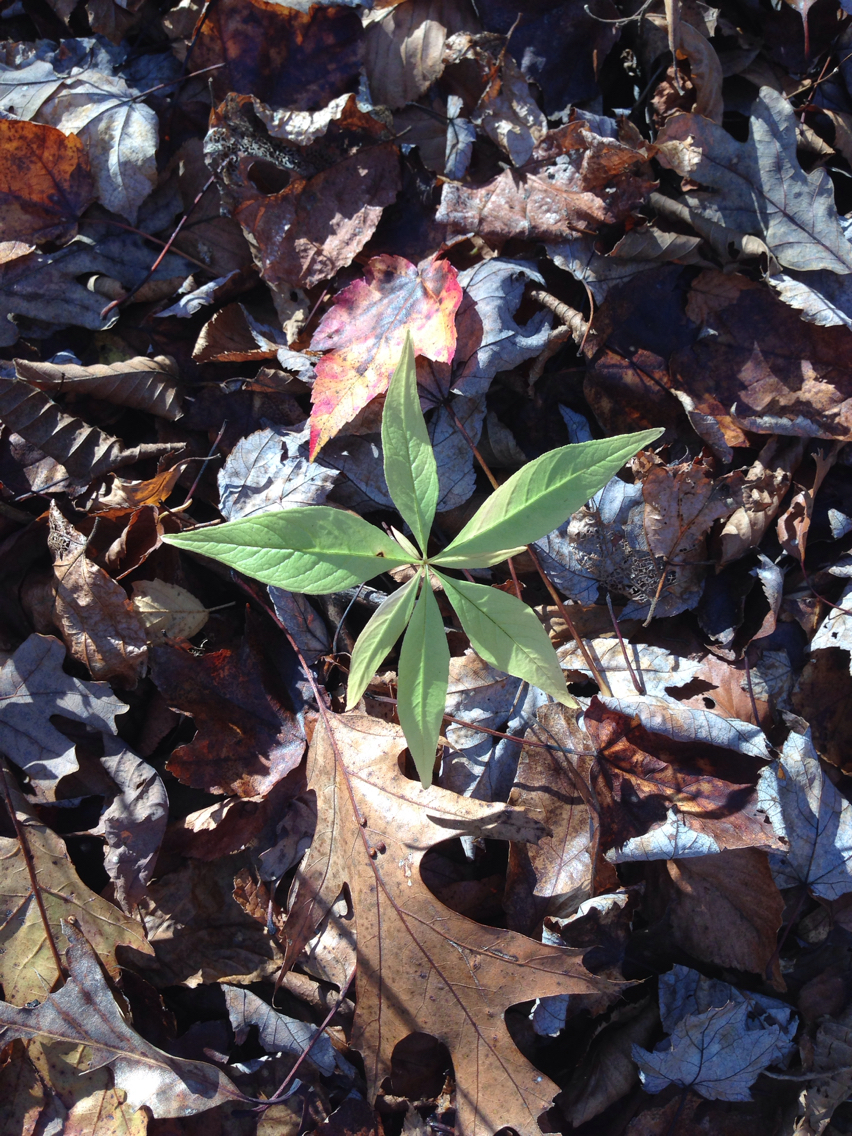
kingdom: Plantae
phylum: Tracheophyta
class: Magnoliopsida
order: Ericales
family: Primulaceae
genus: Lysimachia
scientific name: Lysimachia borealis
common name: American starflower
